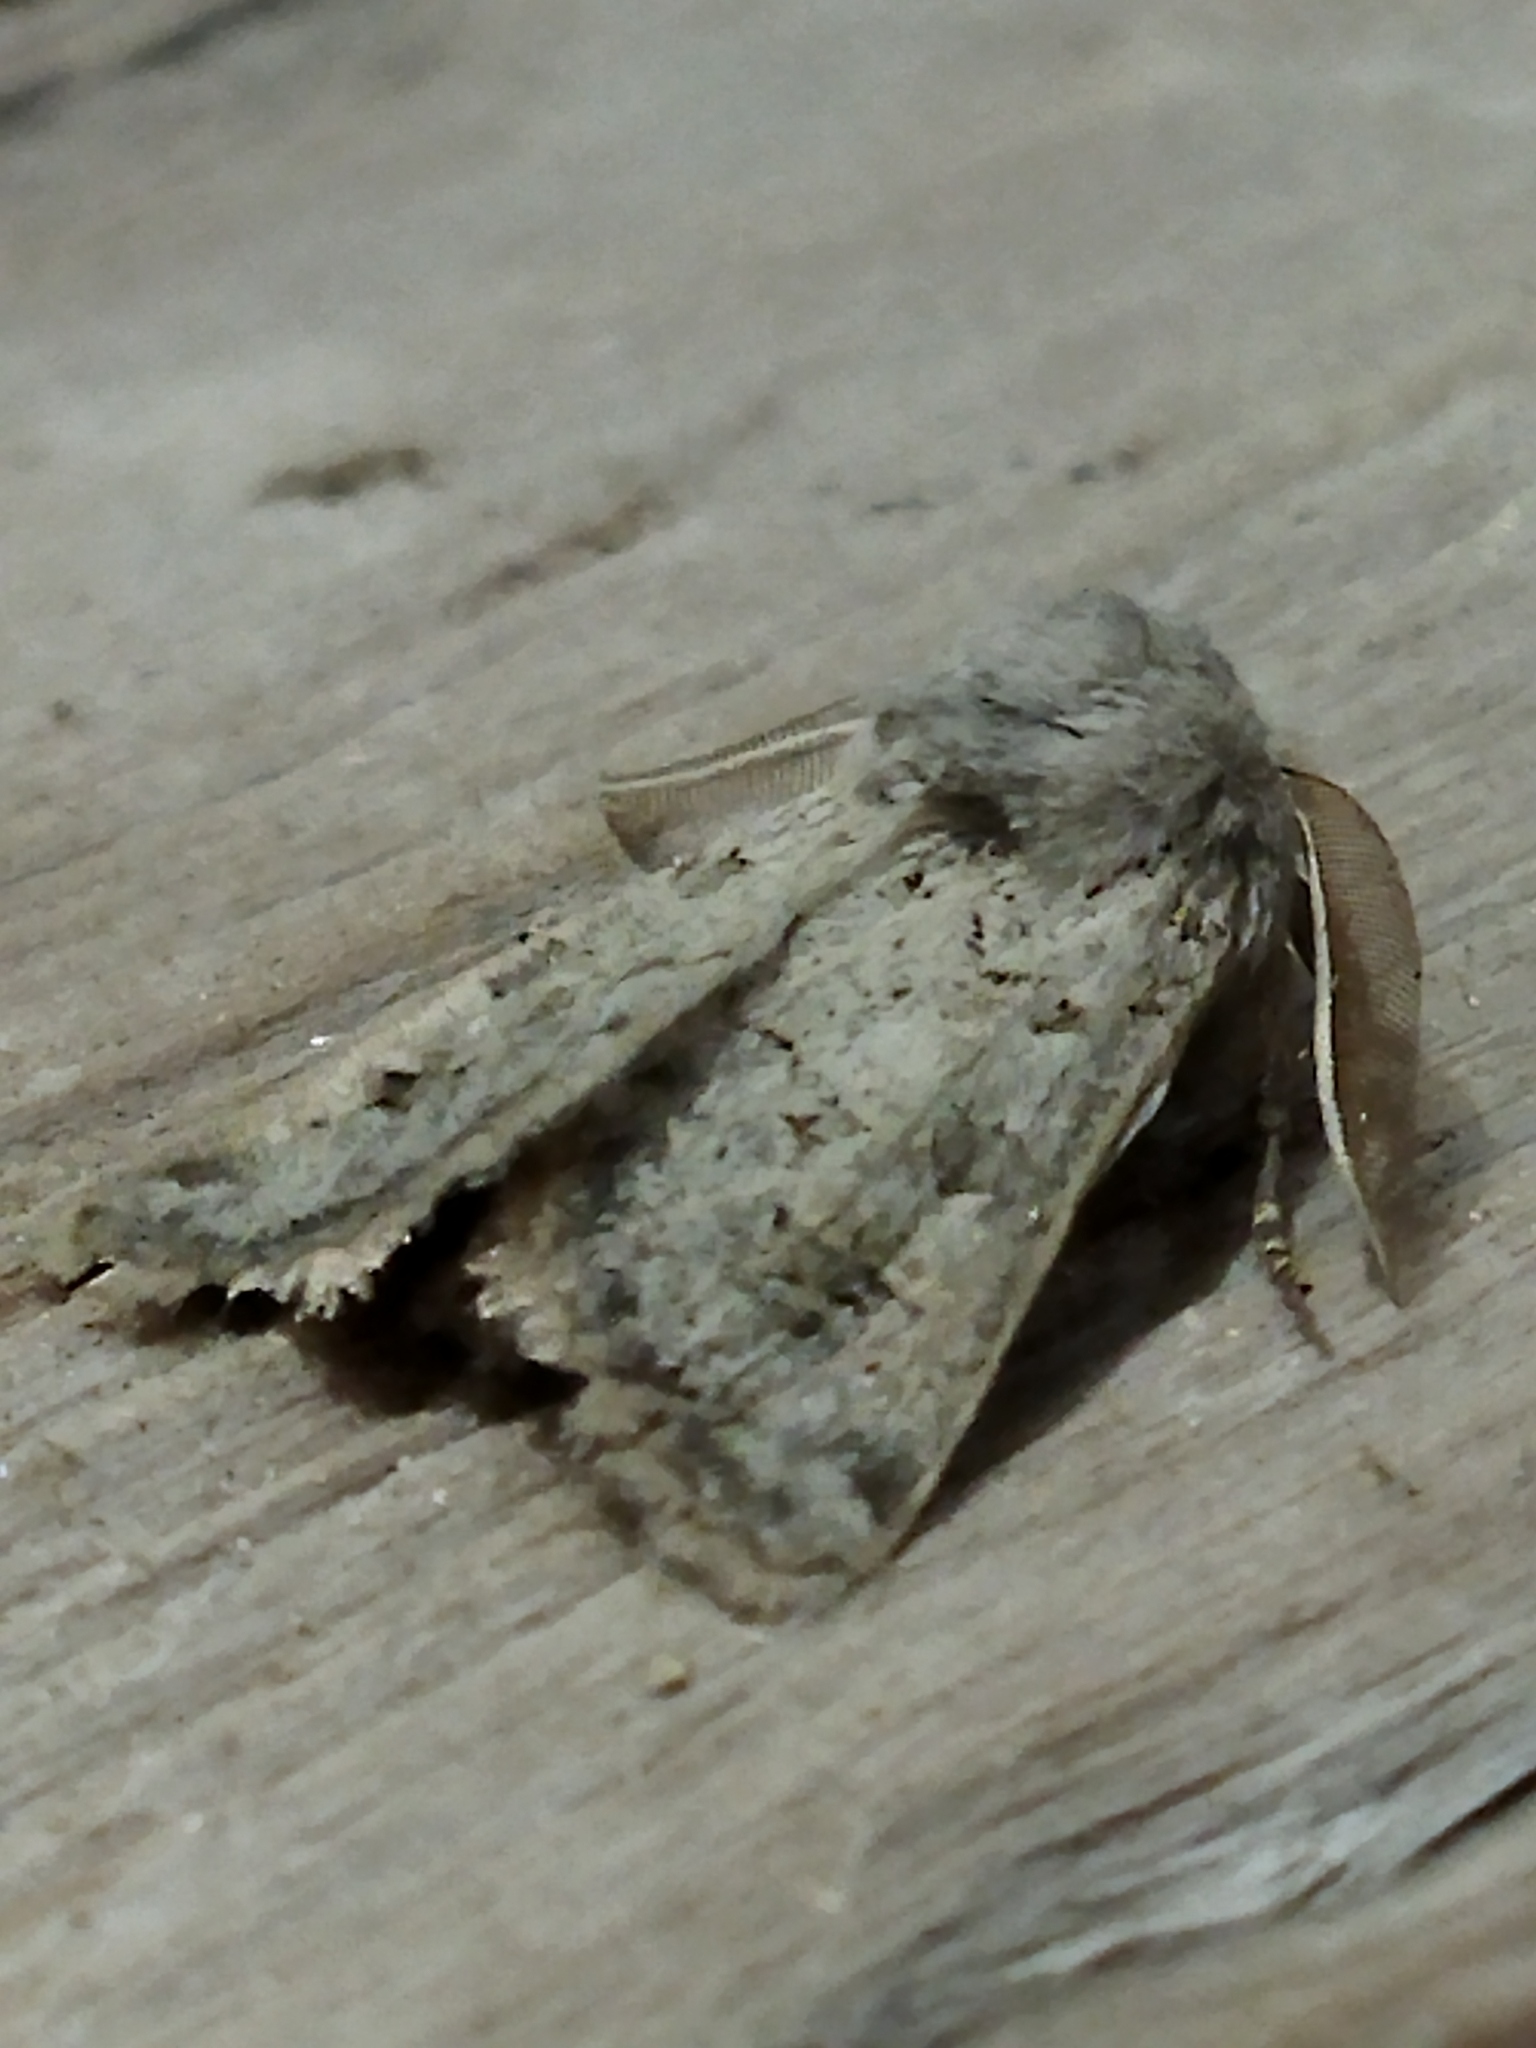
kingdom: Animalia
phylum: Arthropoda
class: Insecta
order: Lepidoptera
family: Noctuidae
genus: Episema
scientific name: Episema lederi
